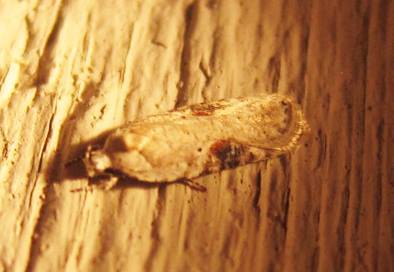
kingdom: Animalia
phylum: Arthropoda
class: Insecta
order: Lepidoptera
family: Depressariidae
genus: Agonopterix
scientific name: Agonopterix alstroemeriana
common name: Moth
